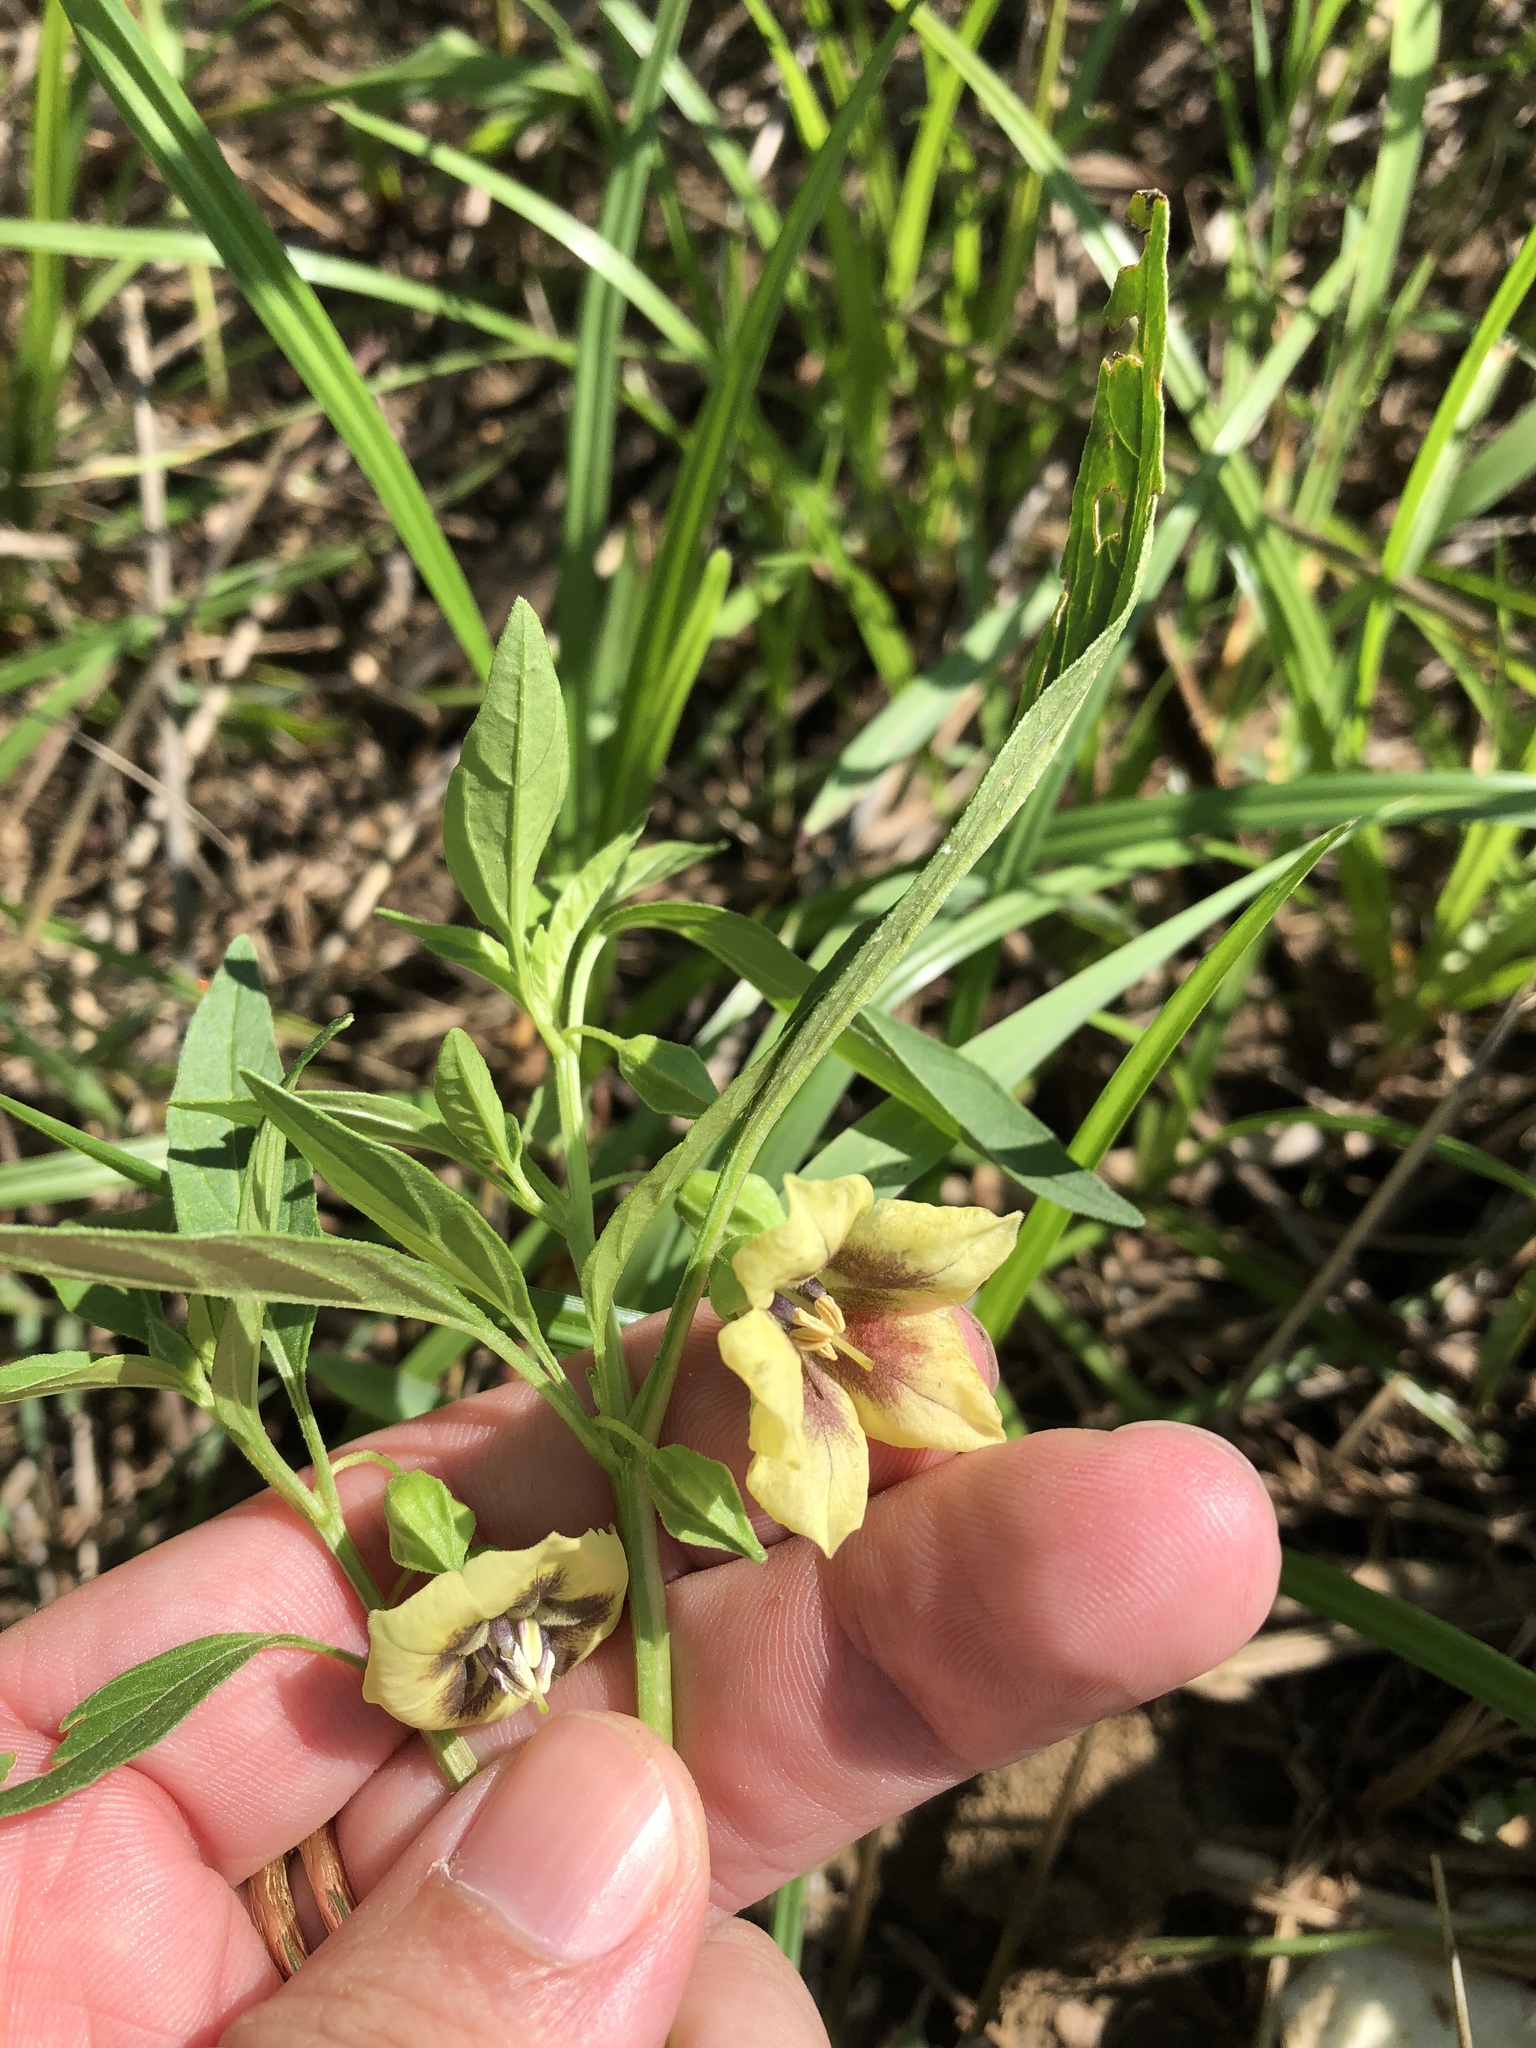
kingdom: Plantae
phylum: Tracheophyta
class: Magnoliopsida
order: Solanales
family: Solanaceae
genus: Physalis
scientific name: Physalis longifolia
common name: Common ground-cherry
